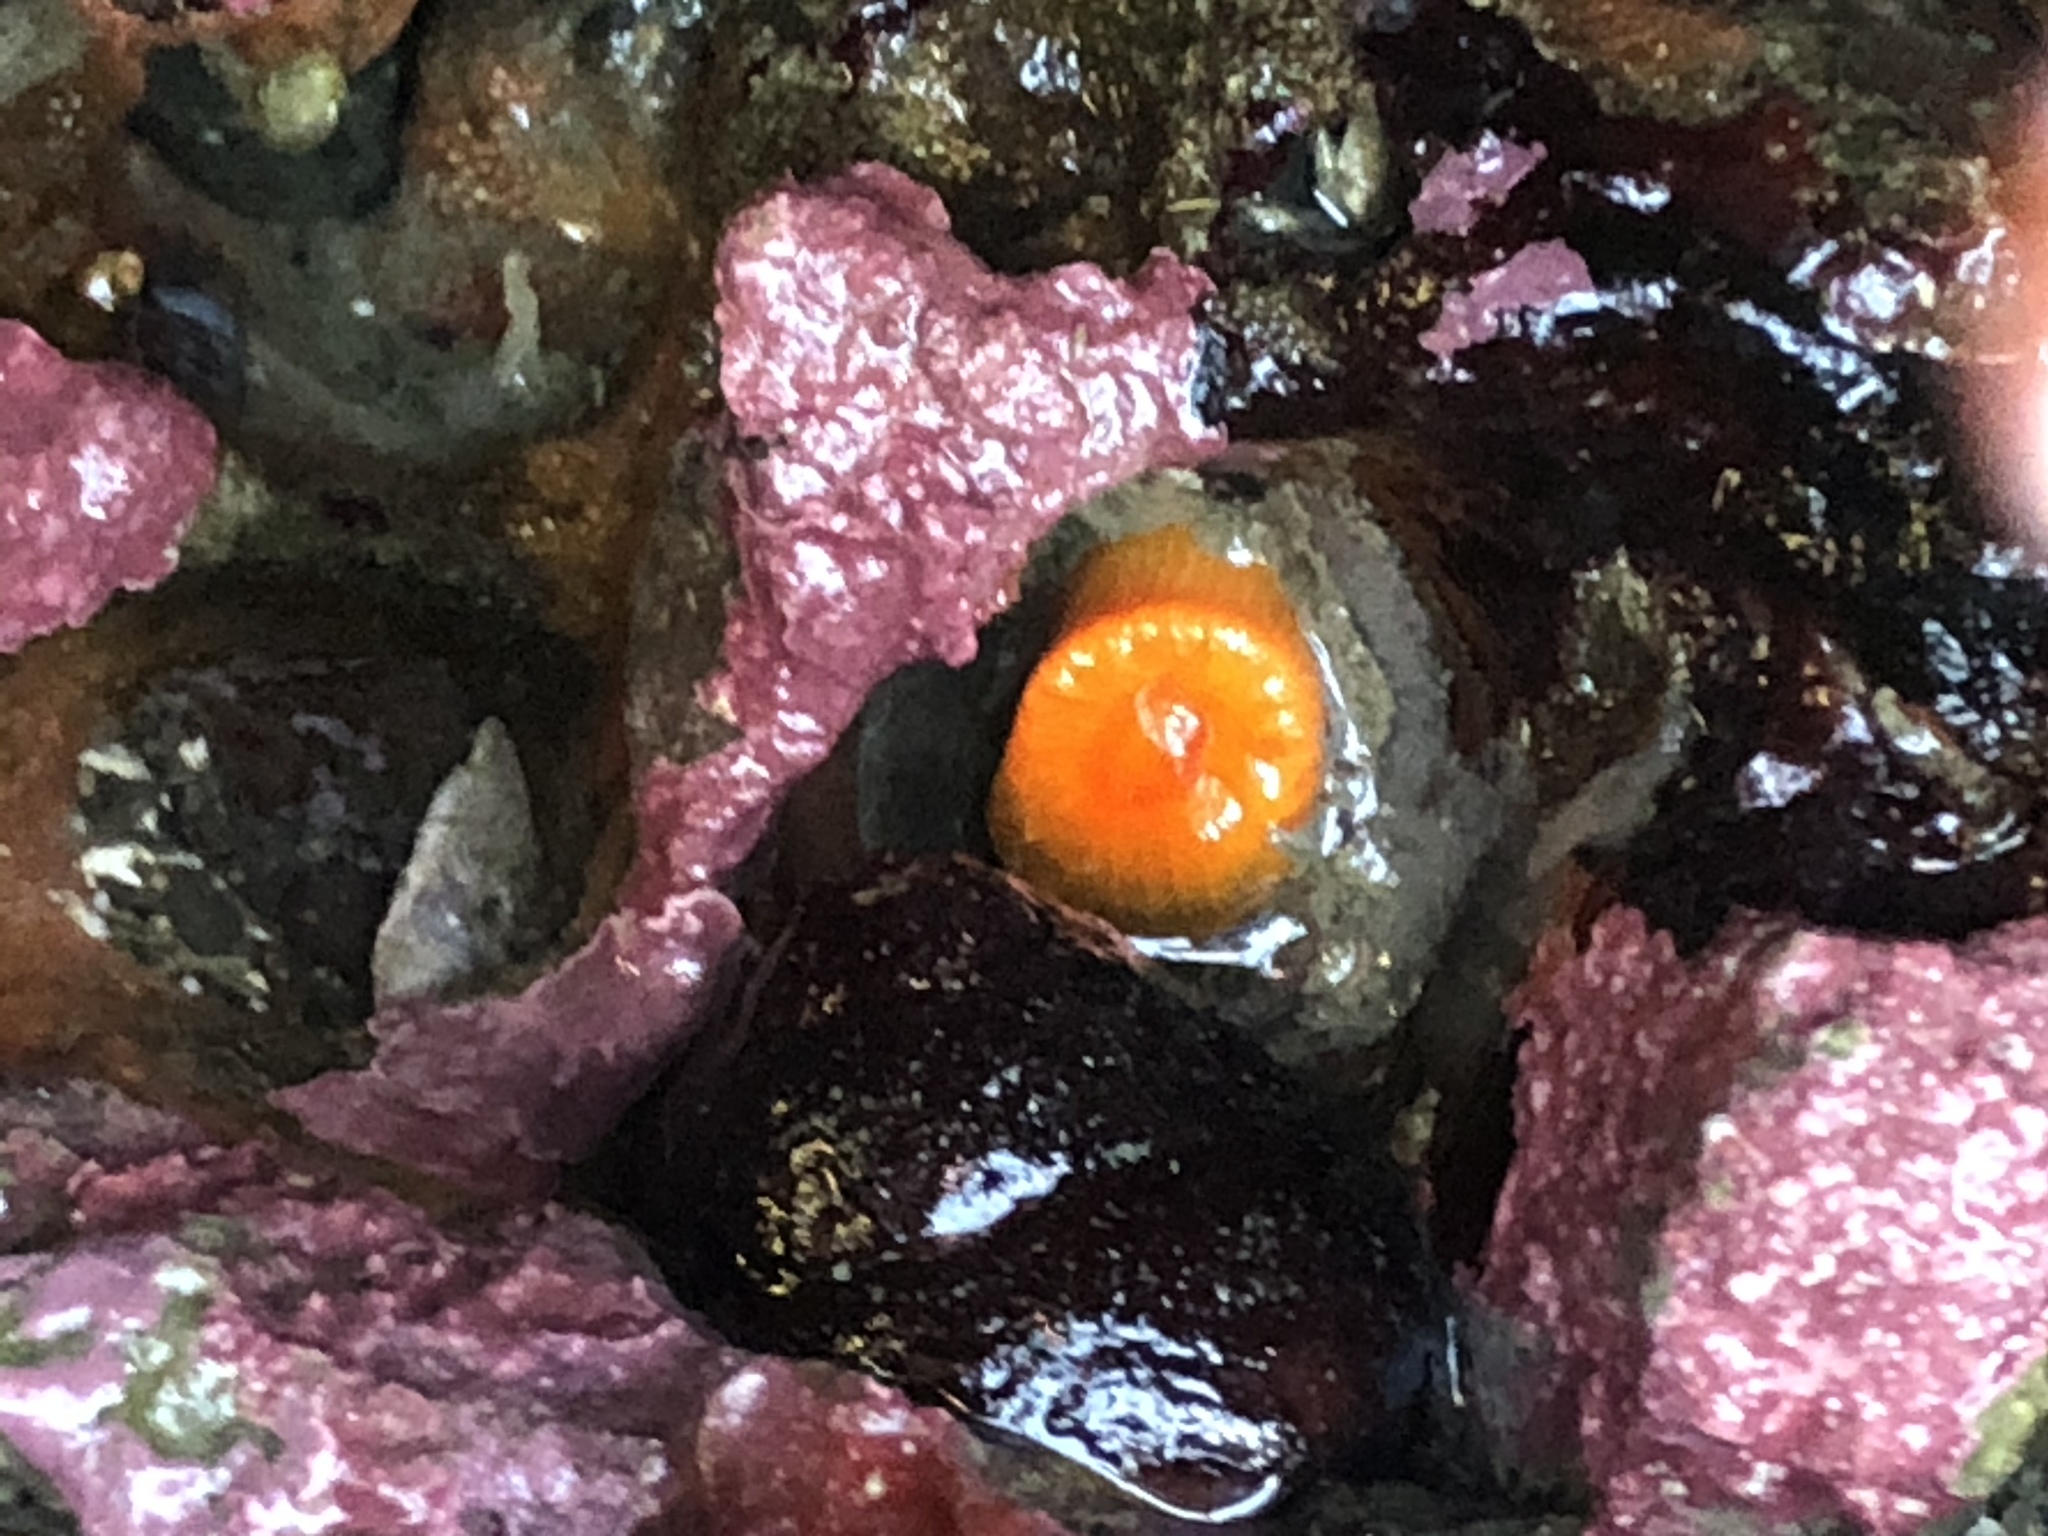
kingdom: Animalia
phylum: Cnidaria
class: Anthozoa
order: Scleractinia
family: Dendrophylliidae
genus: Balanophyllia
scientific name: Balanophyllia elegans
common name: Orange stony coral
